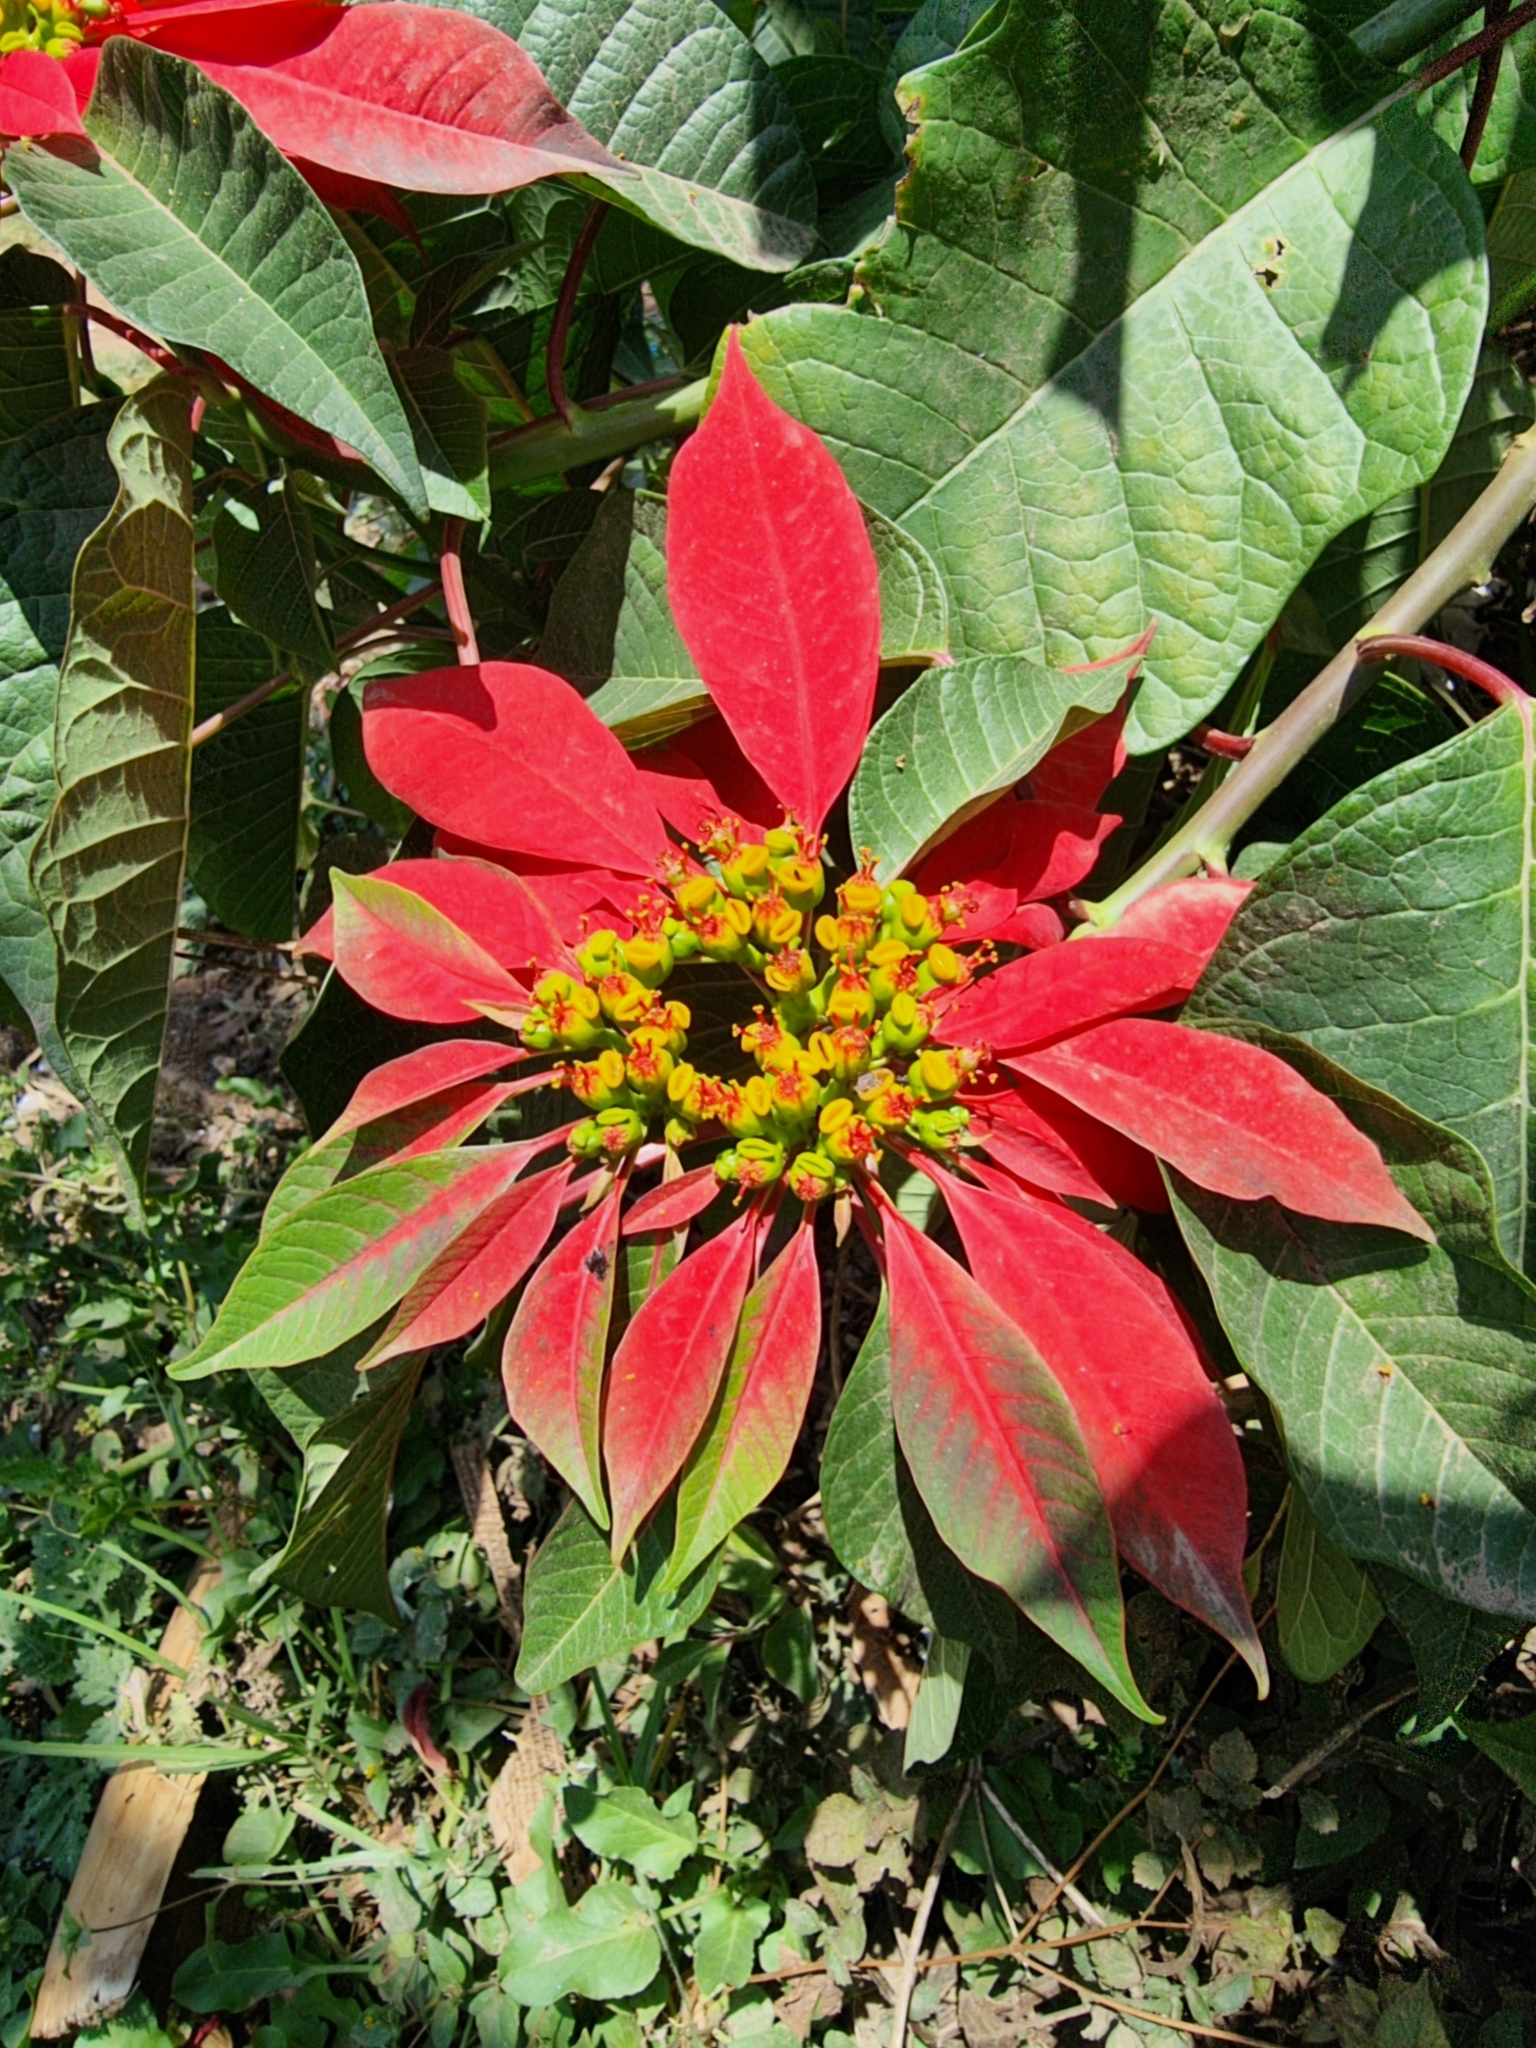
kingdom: Plantae
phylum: Tracheophyta
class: Magnoliopsida
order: Malpighiales
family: Euphorbiaceae
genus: Euphorbia
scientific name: Euphorbia pulcherrima
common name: Christmas-flower
